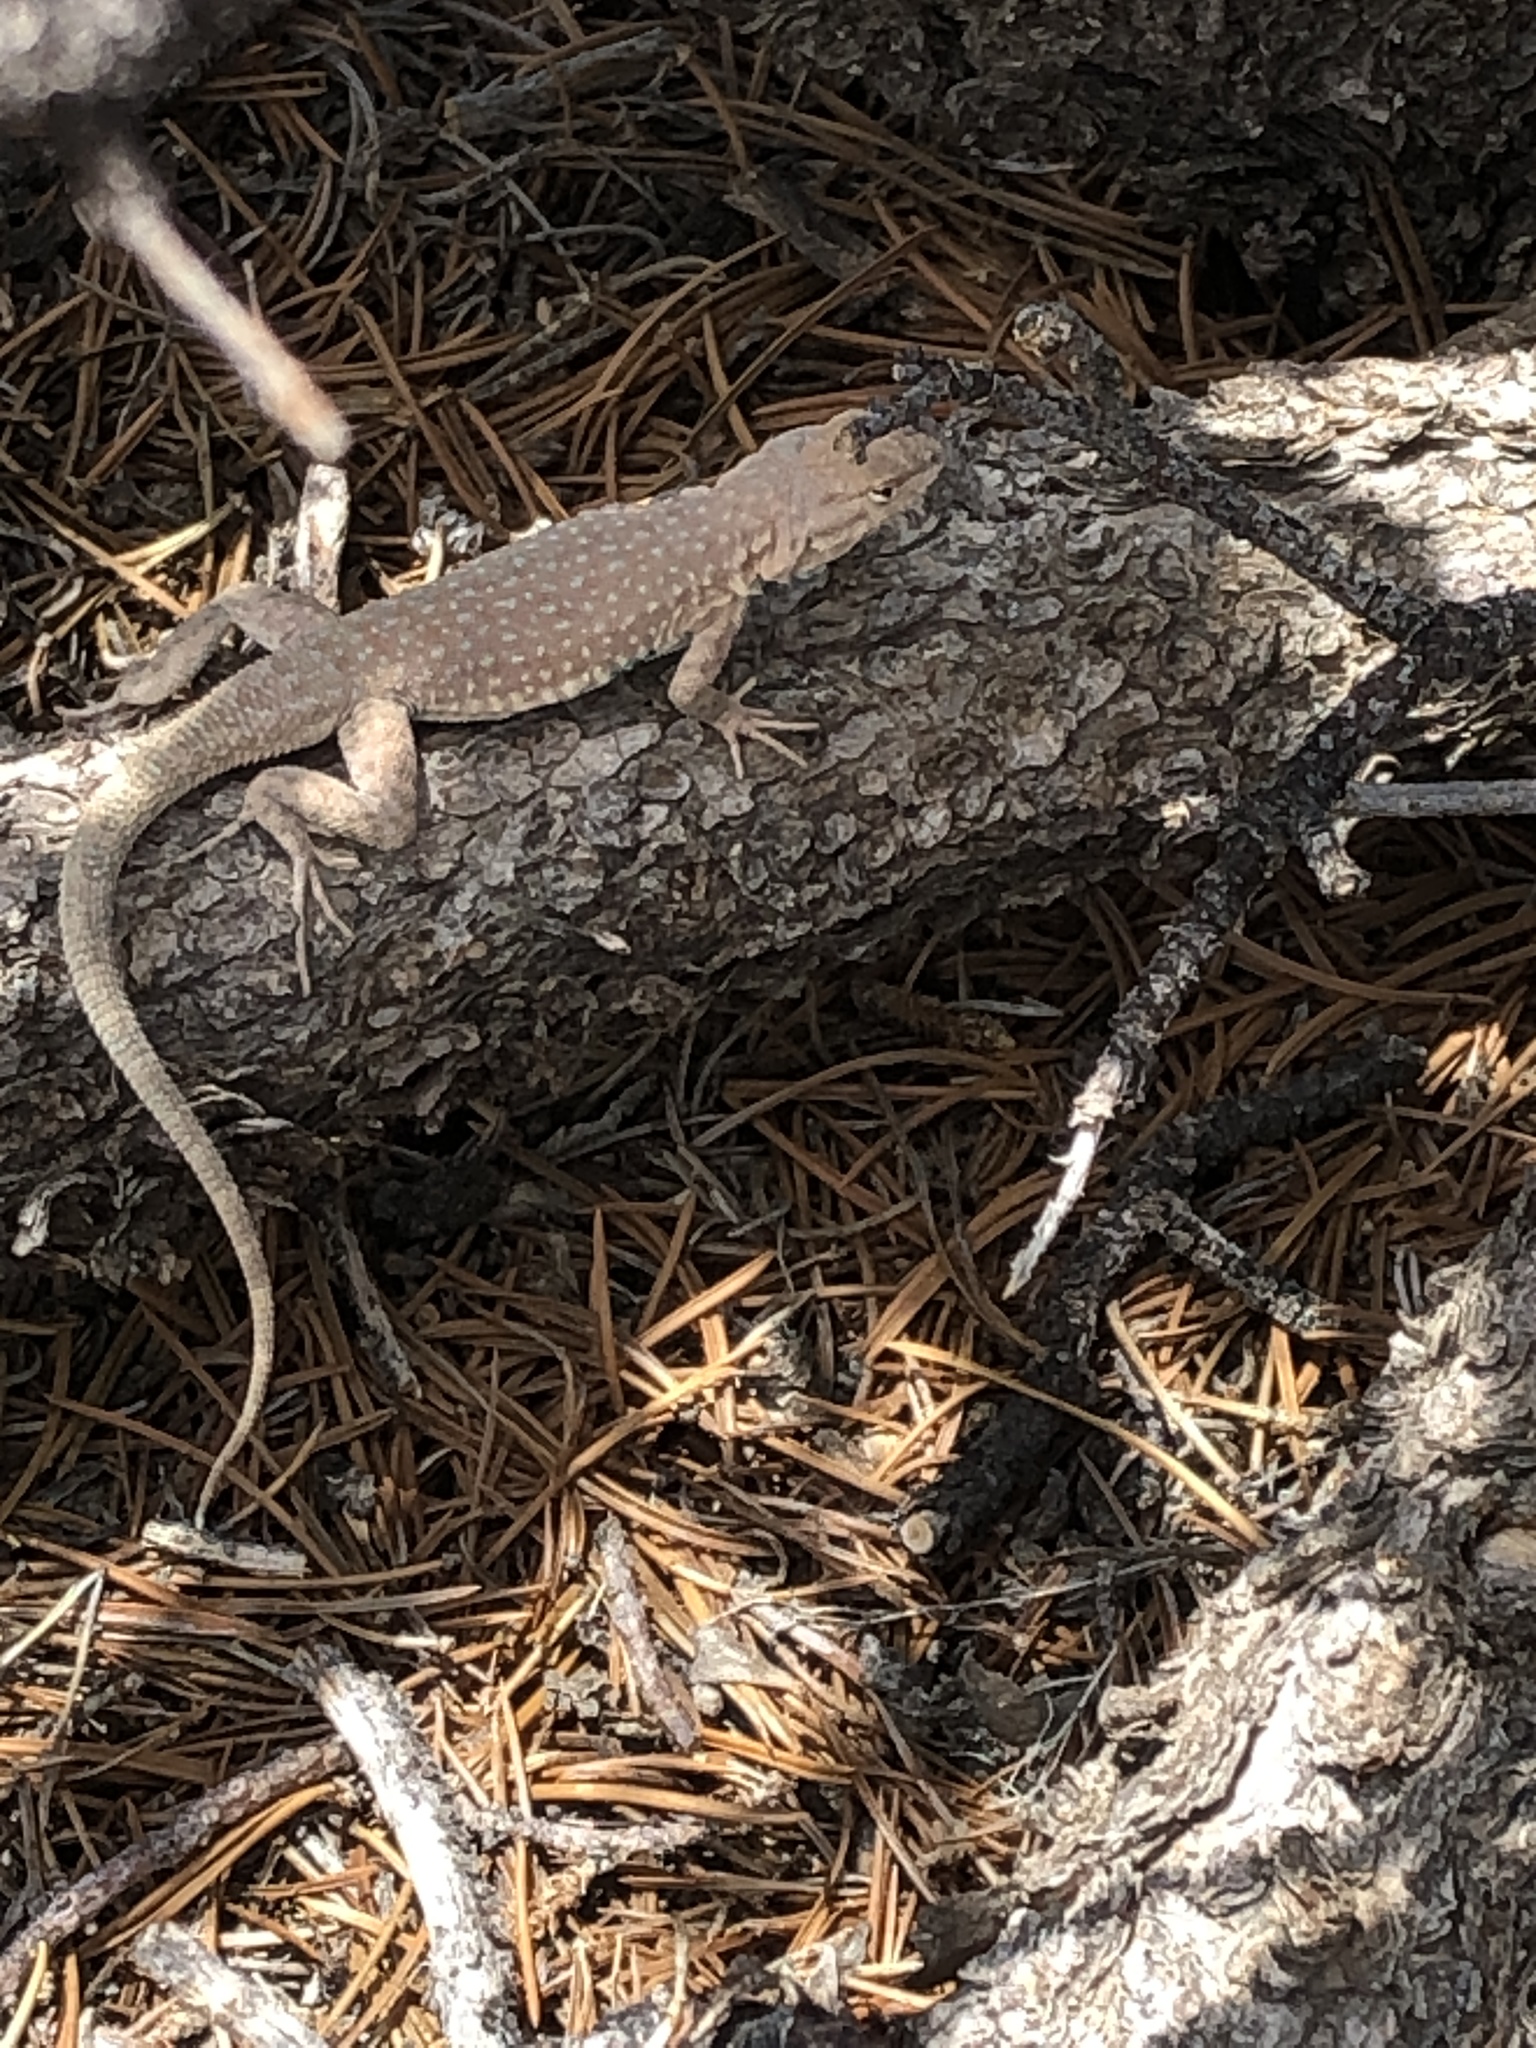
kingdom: Animalia
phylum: Chordata
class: Squamata
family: Phrynosomatidae
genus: Uta
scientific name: Uta stansburiana
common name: Side-blotched lizard
